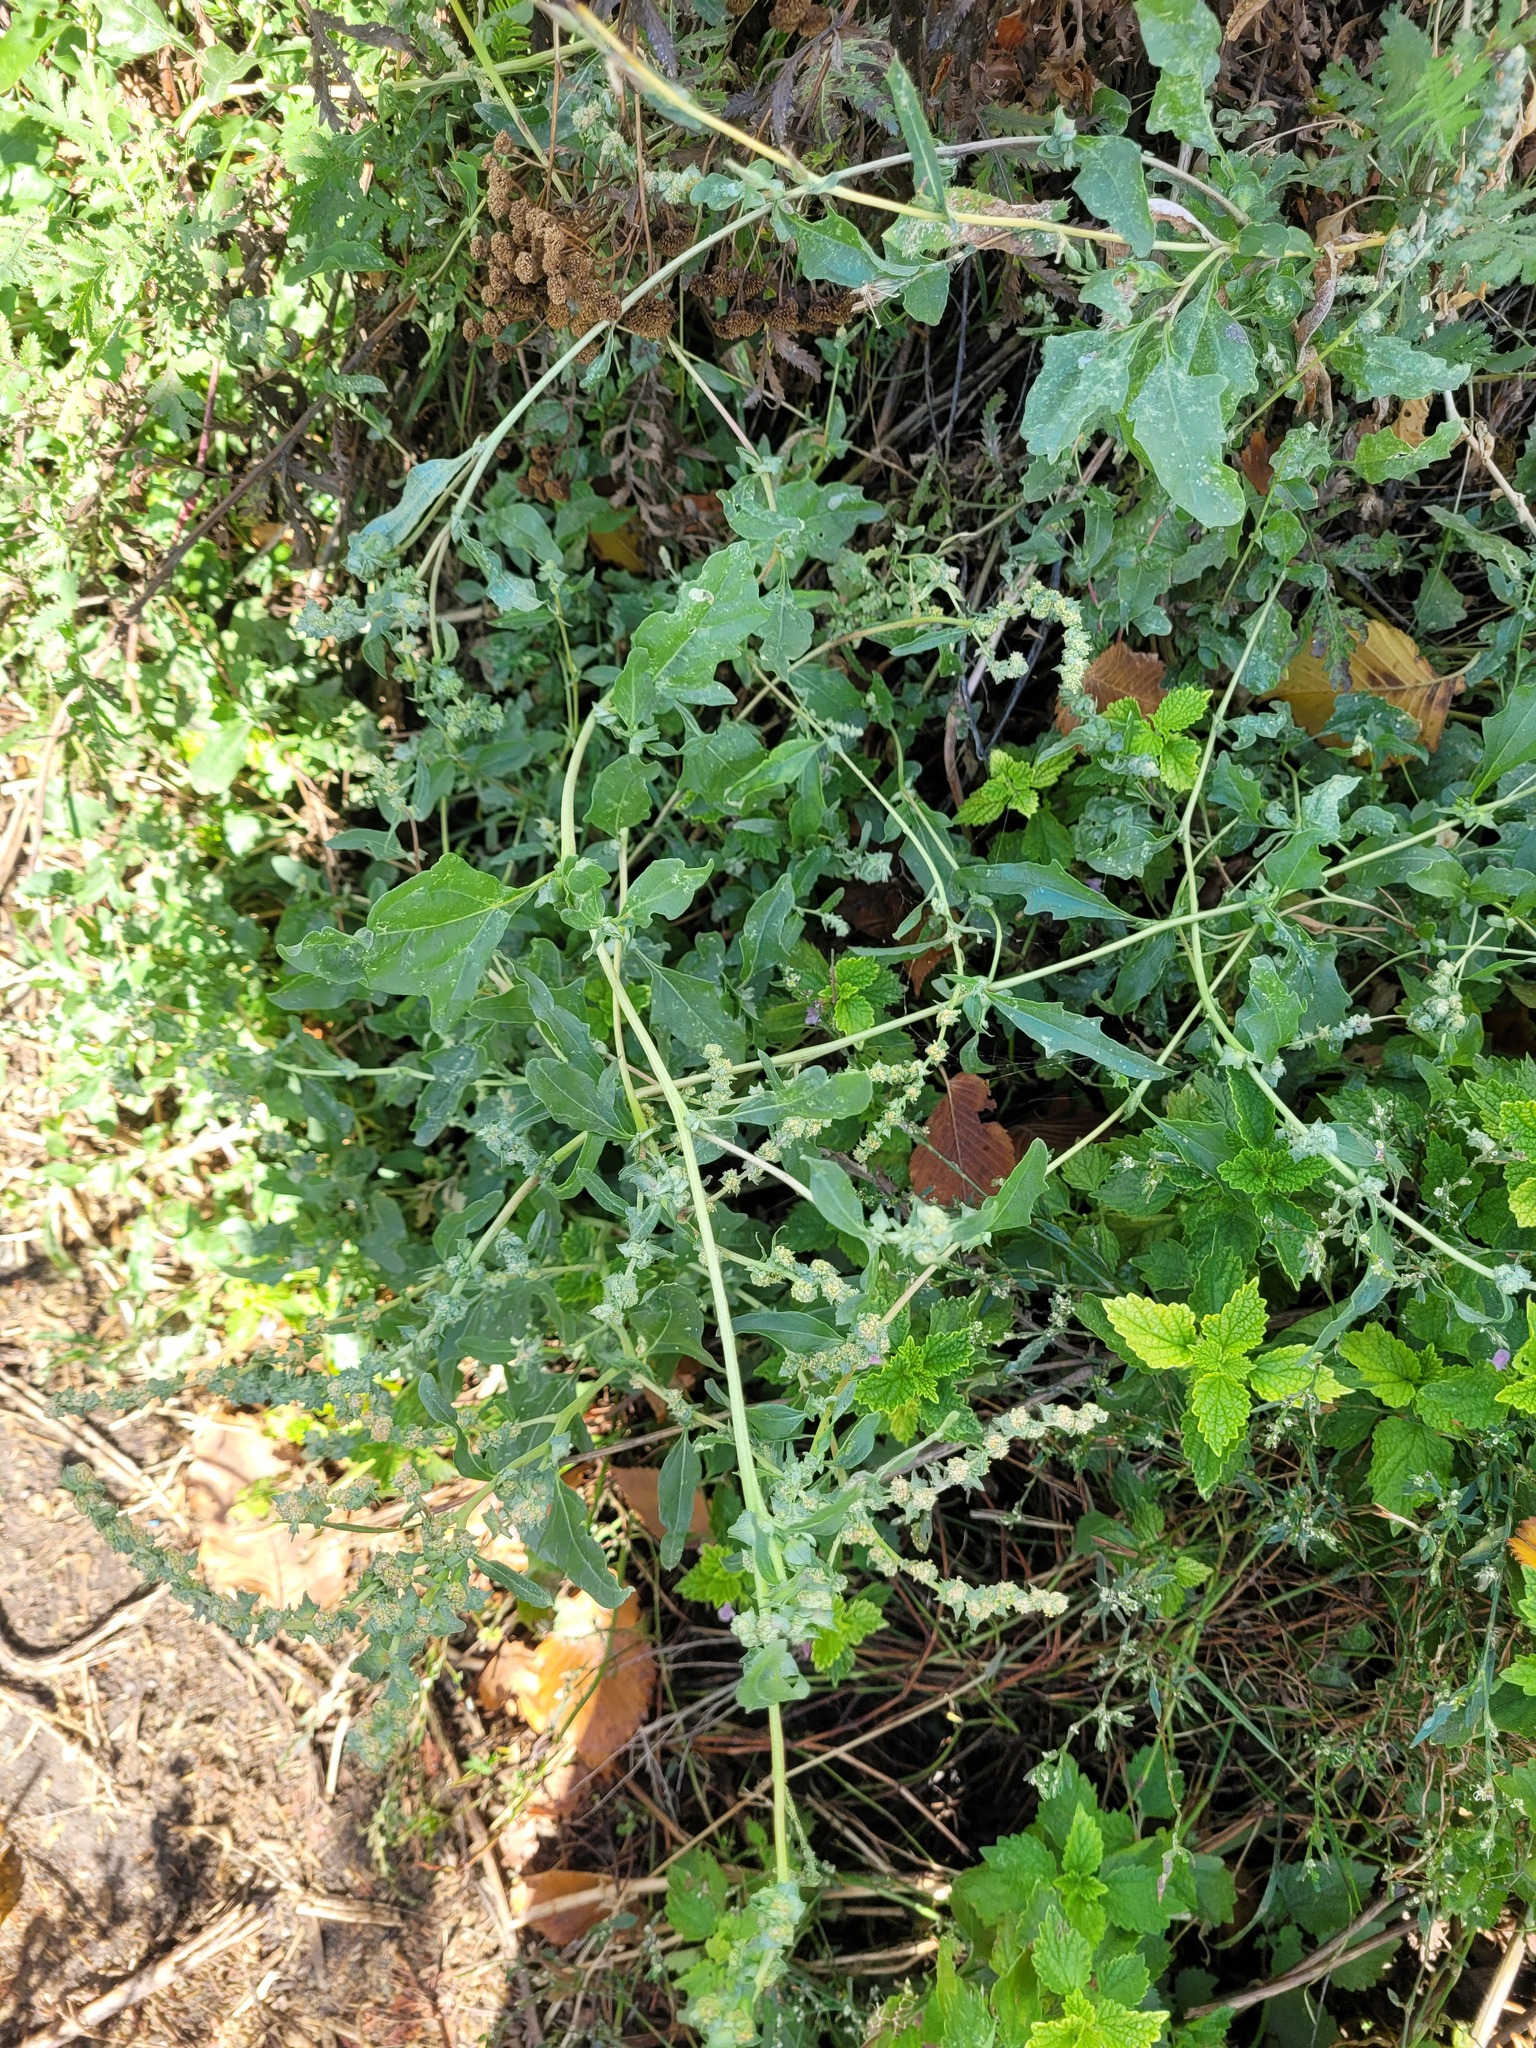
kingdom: Plantae
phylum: Tracheophyta
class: Magnoliopsida
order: Caryophyllales
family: Amaranthaceae
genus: Atriplex
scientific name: Atriplex tatarica
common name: Tatarian orache
